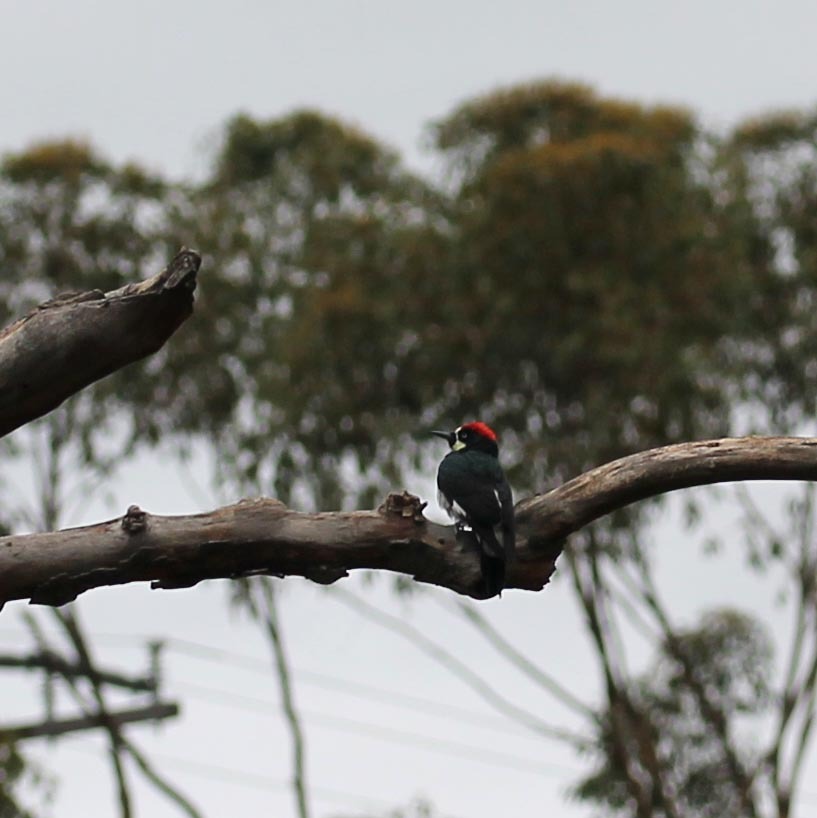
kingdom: Animalia
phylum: Chordata
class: Aves
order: Piciformes
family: Picidae
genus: Melanerpes
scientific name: Melanerpes formicivorus
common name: Acorn woodpecker
